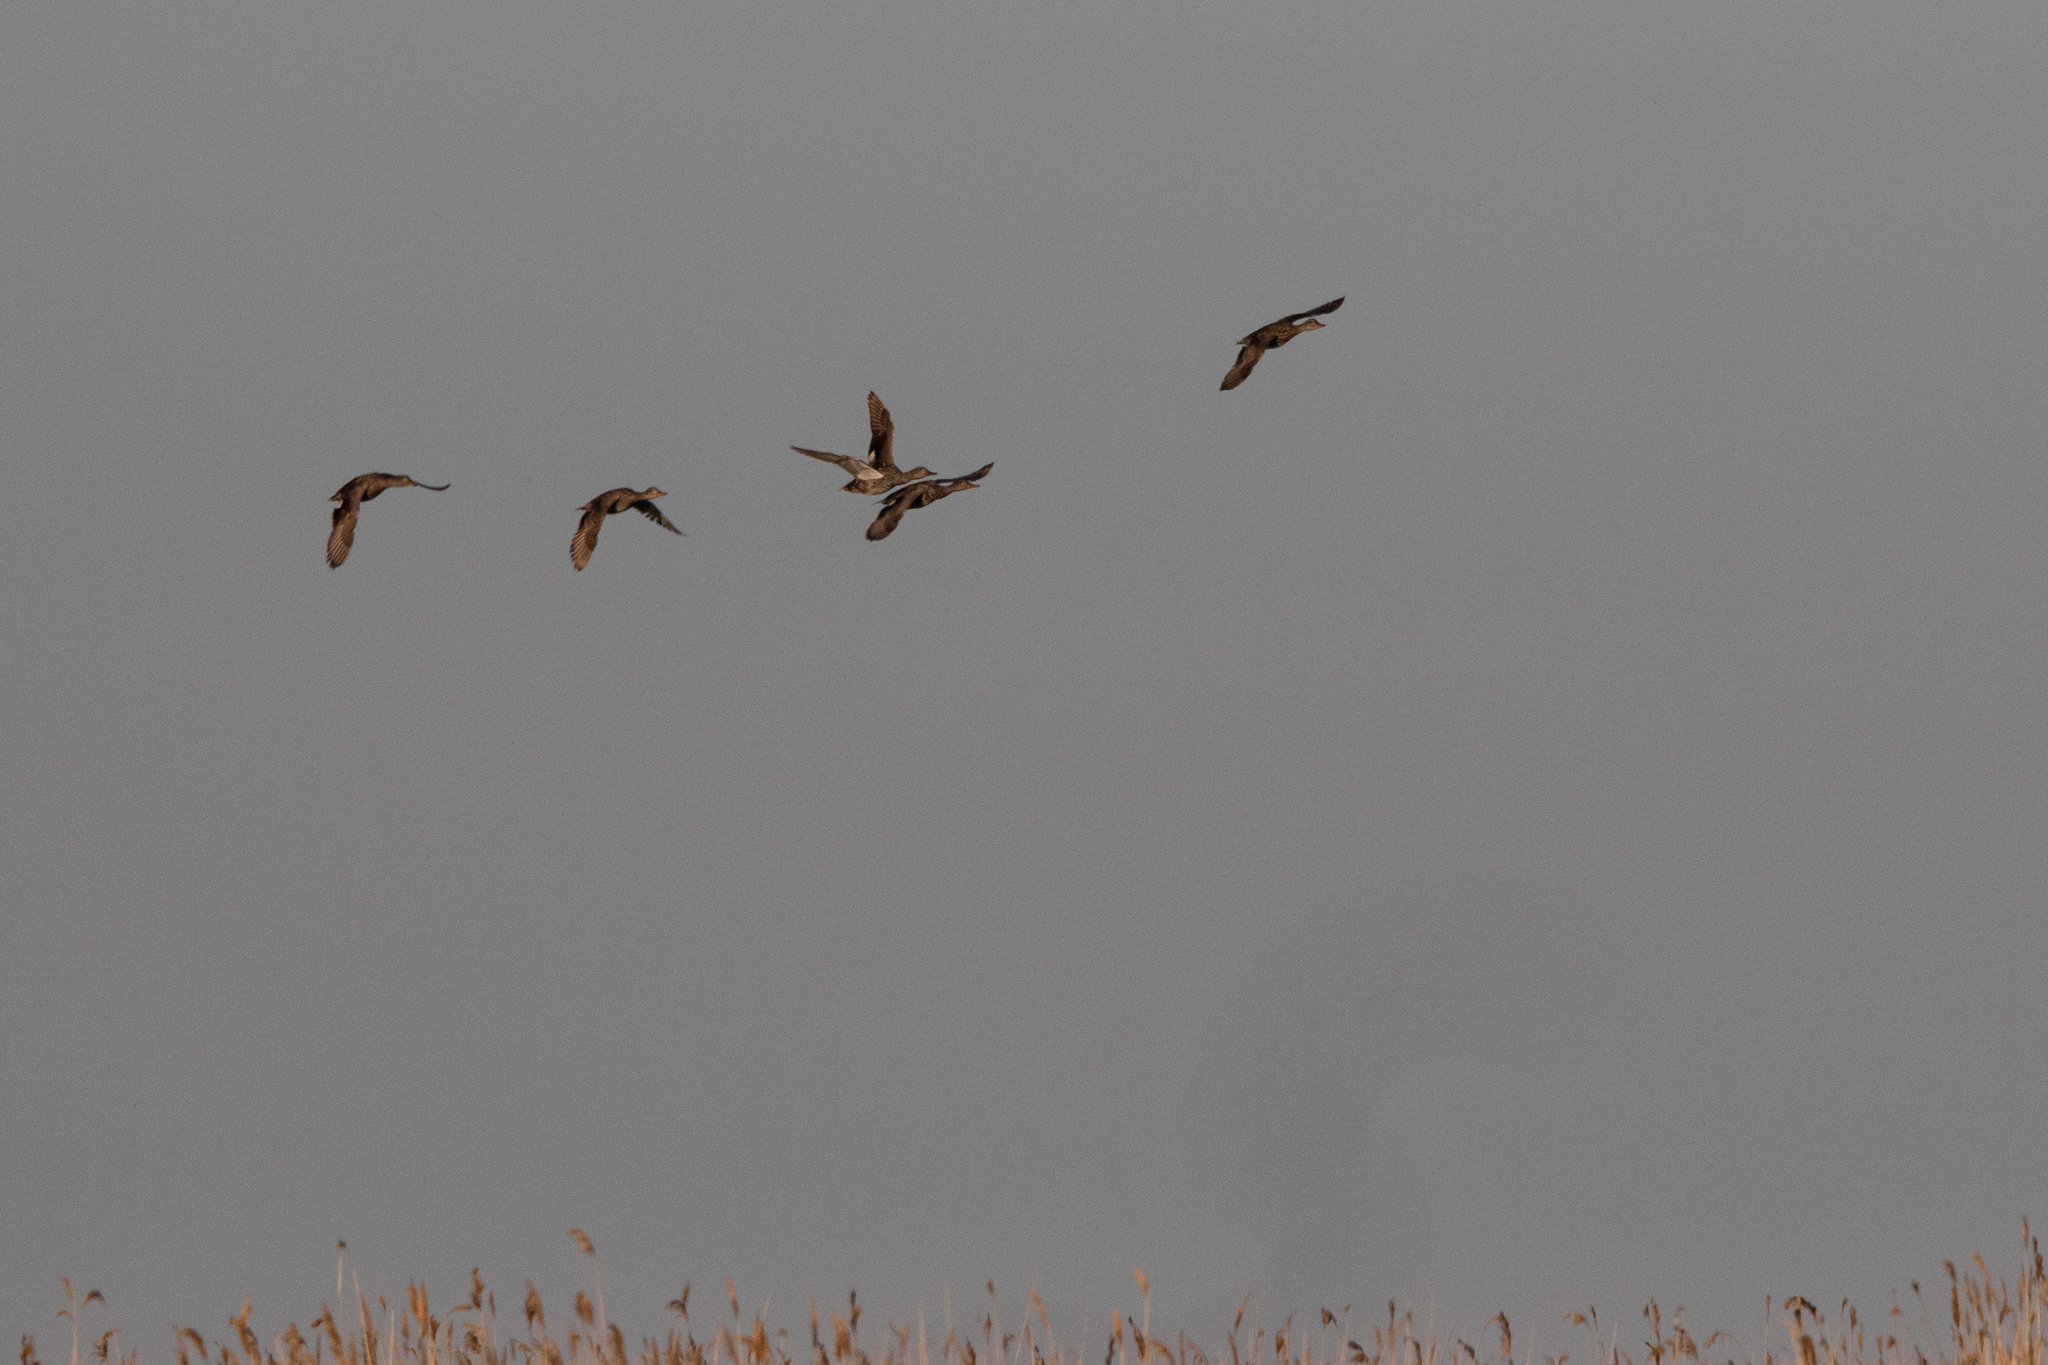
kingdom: Animalia
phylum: Chordata
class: Aves
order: Anseriformes
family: Anatidae
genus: Mareca
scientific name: Mareca strepera
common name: Gadwall
